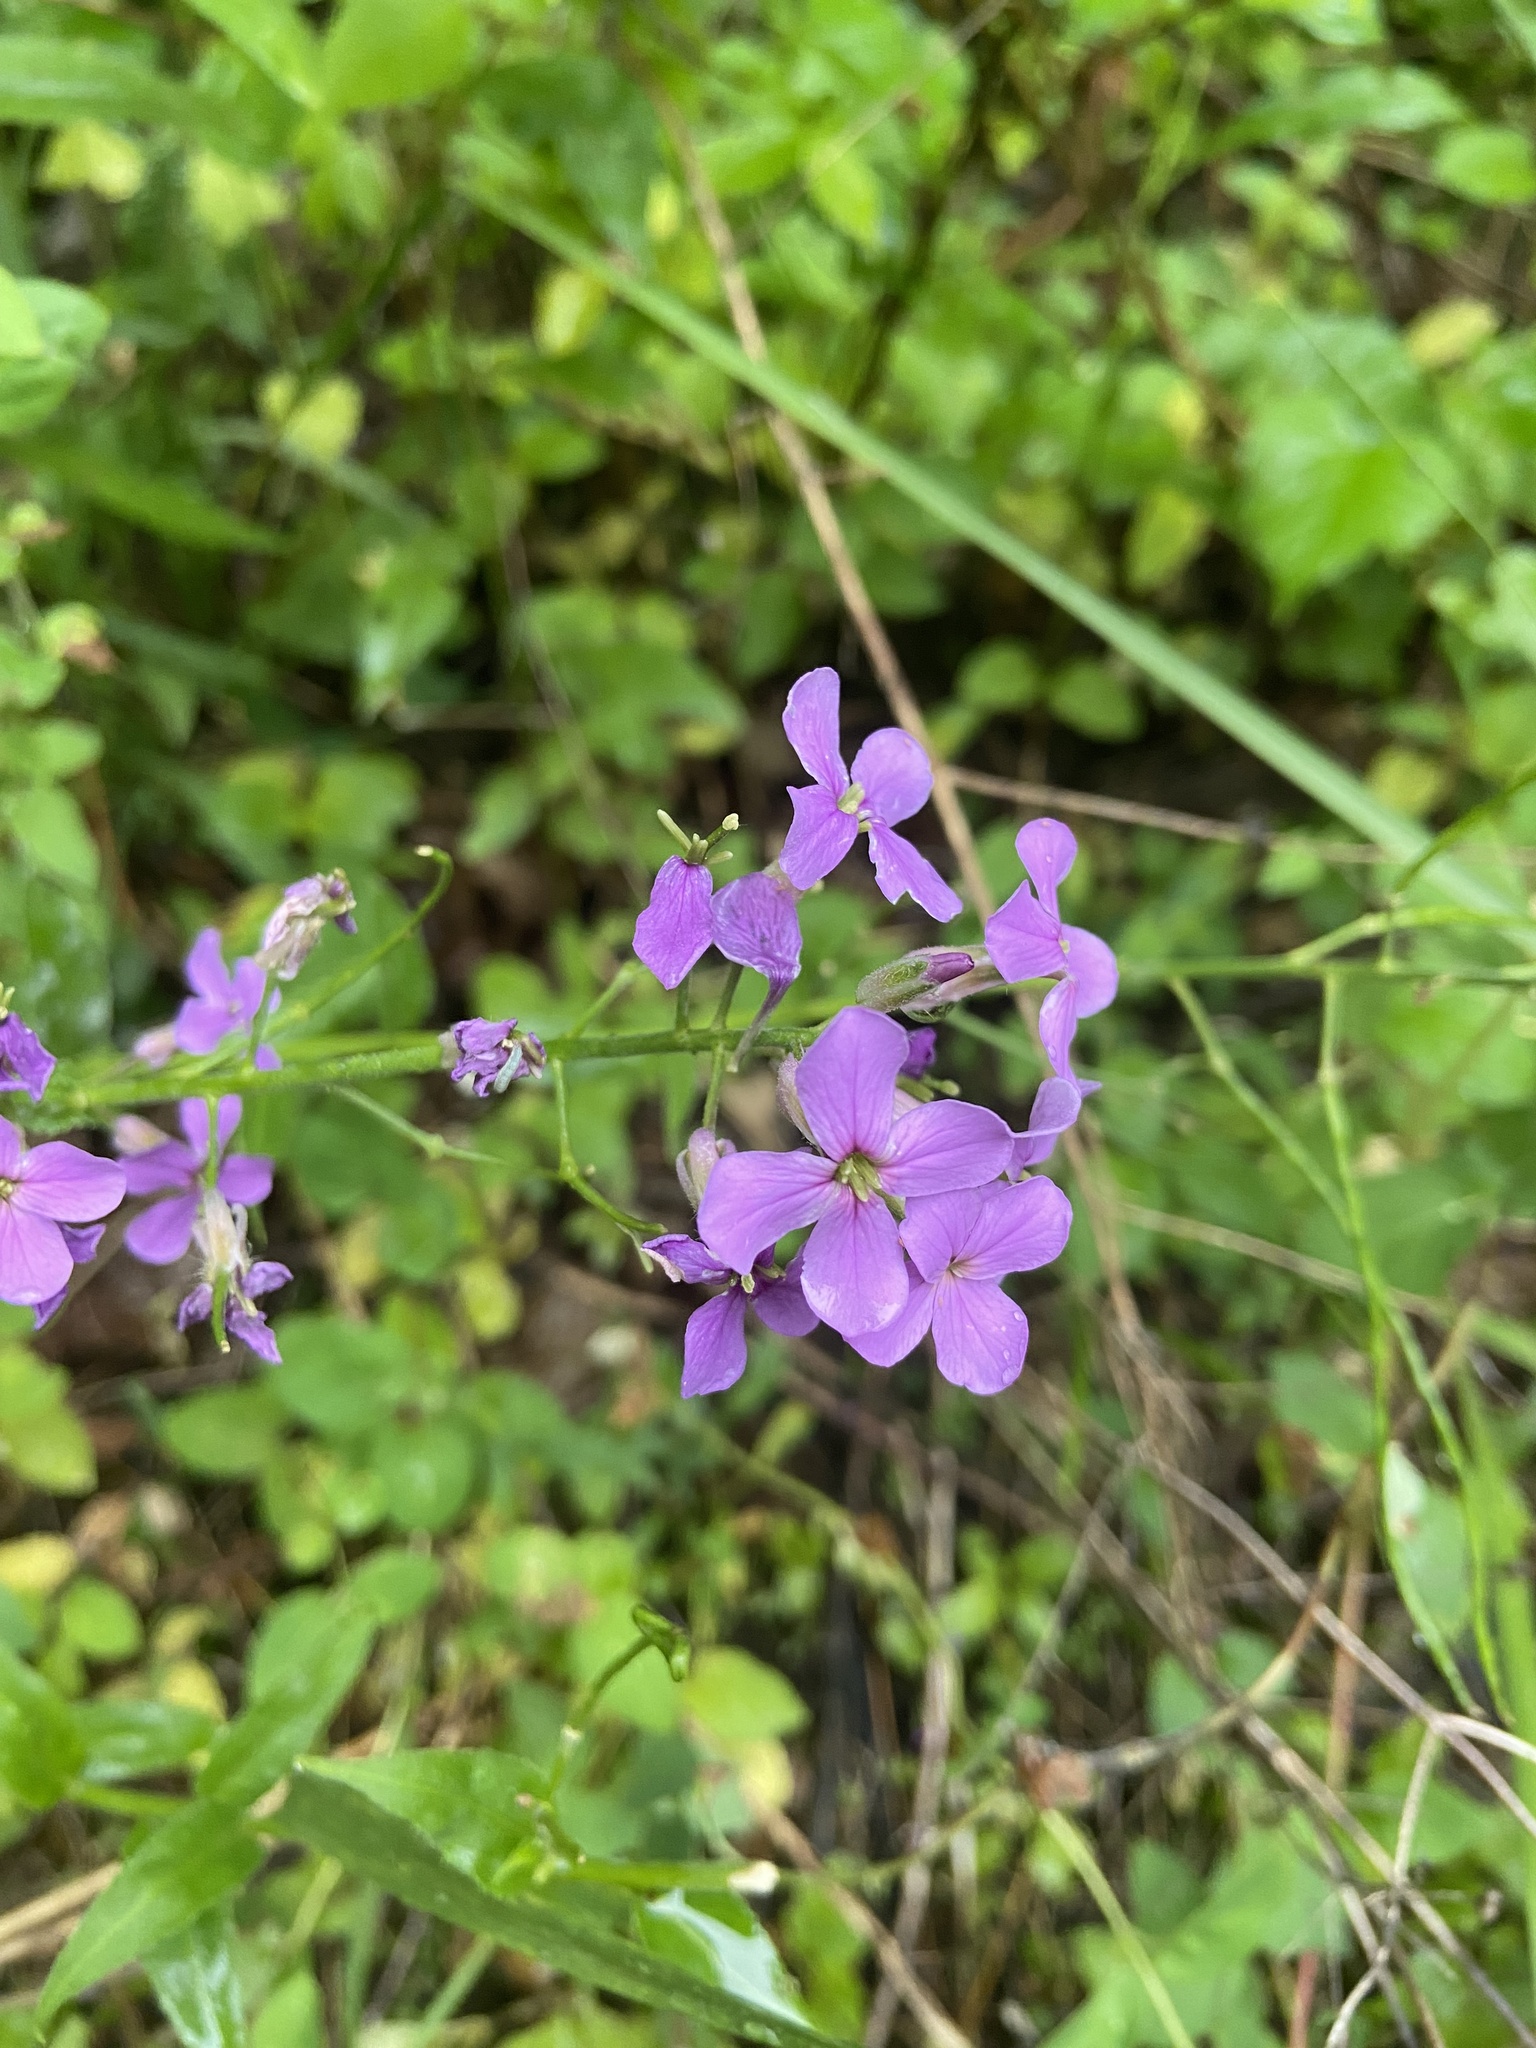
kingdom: Plantae
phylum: Tracheophyta
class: Magnoliopsida
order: Brassicales
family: Brassicaceae
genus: Hesperis
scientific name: Hesperis matronalis
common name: Dame's-violet
